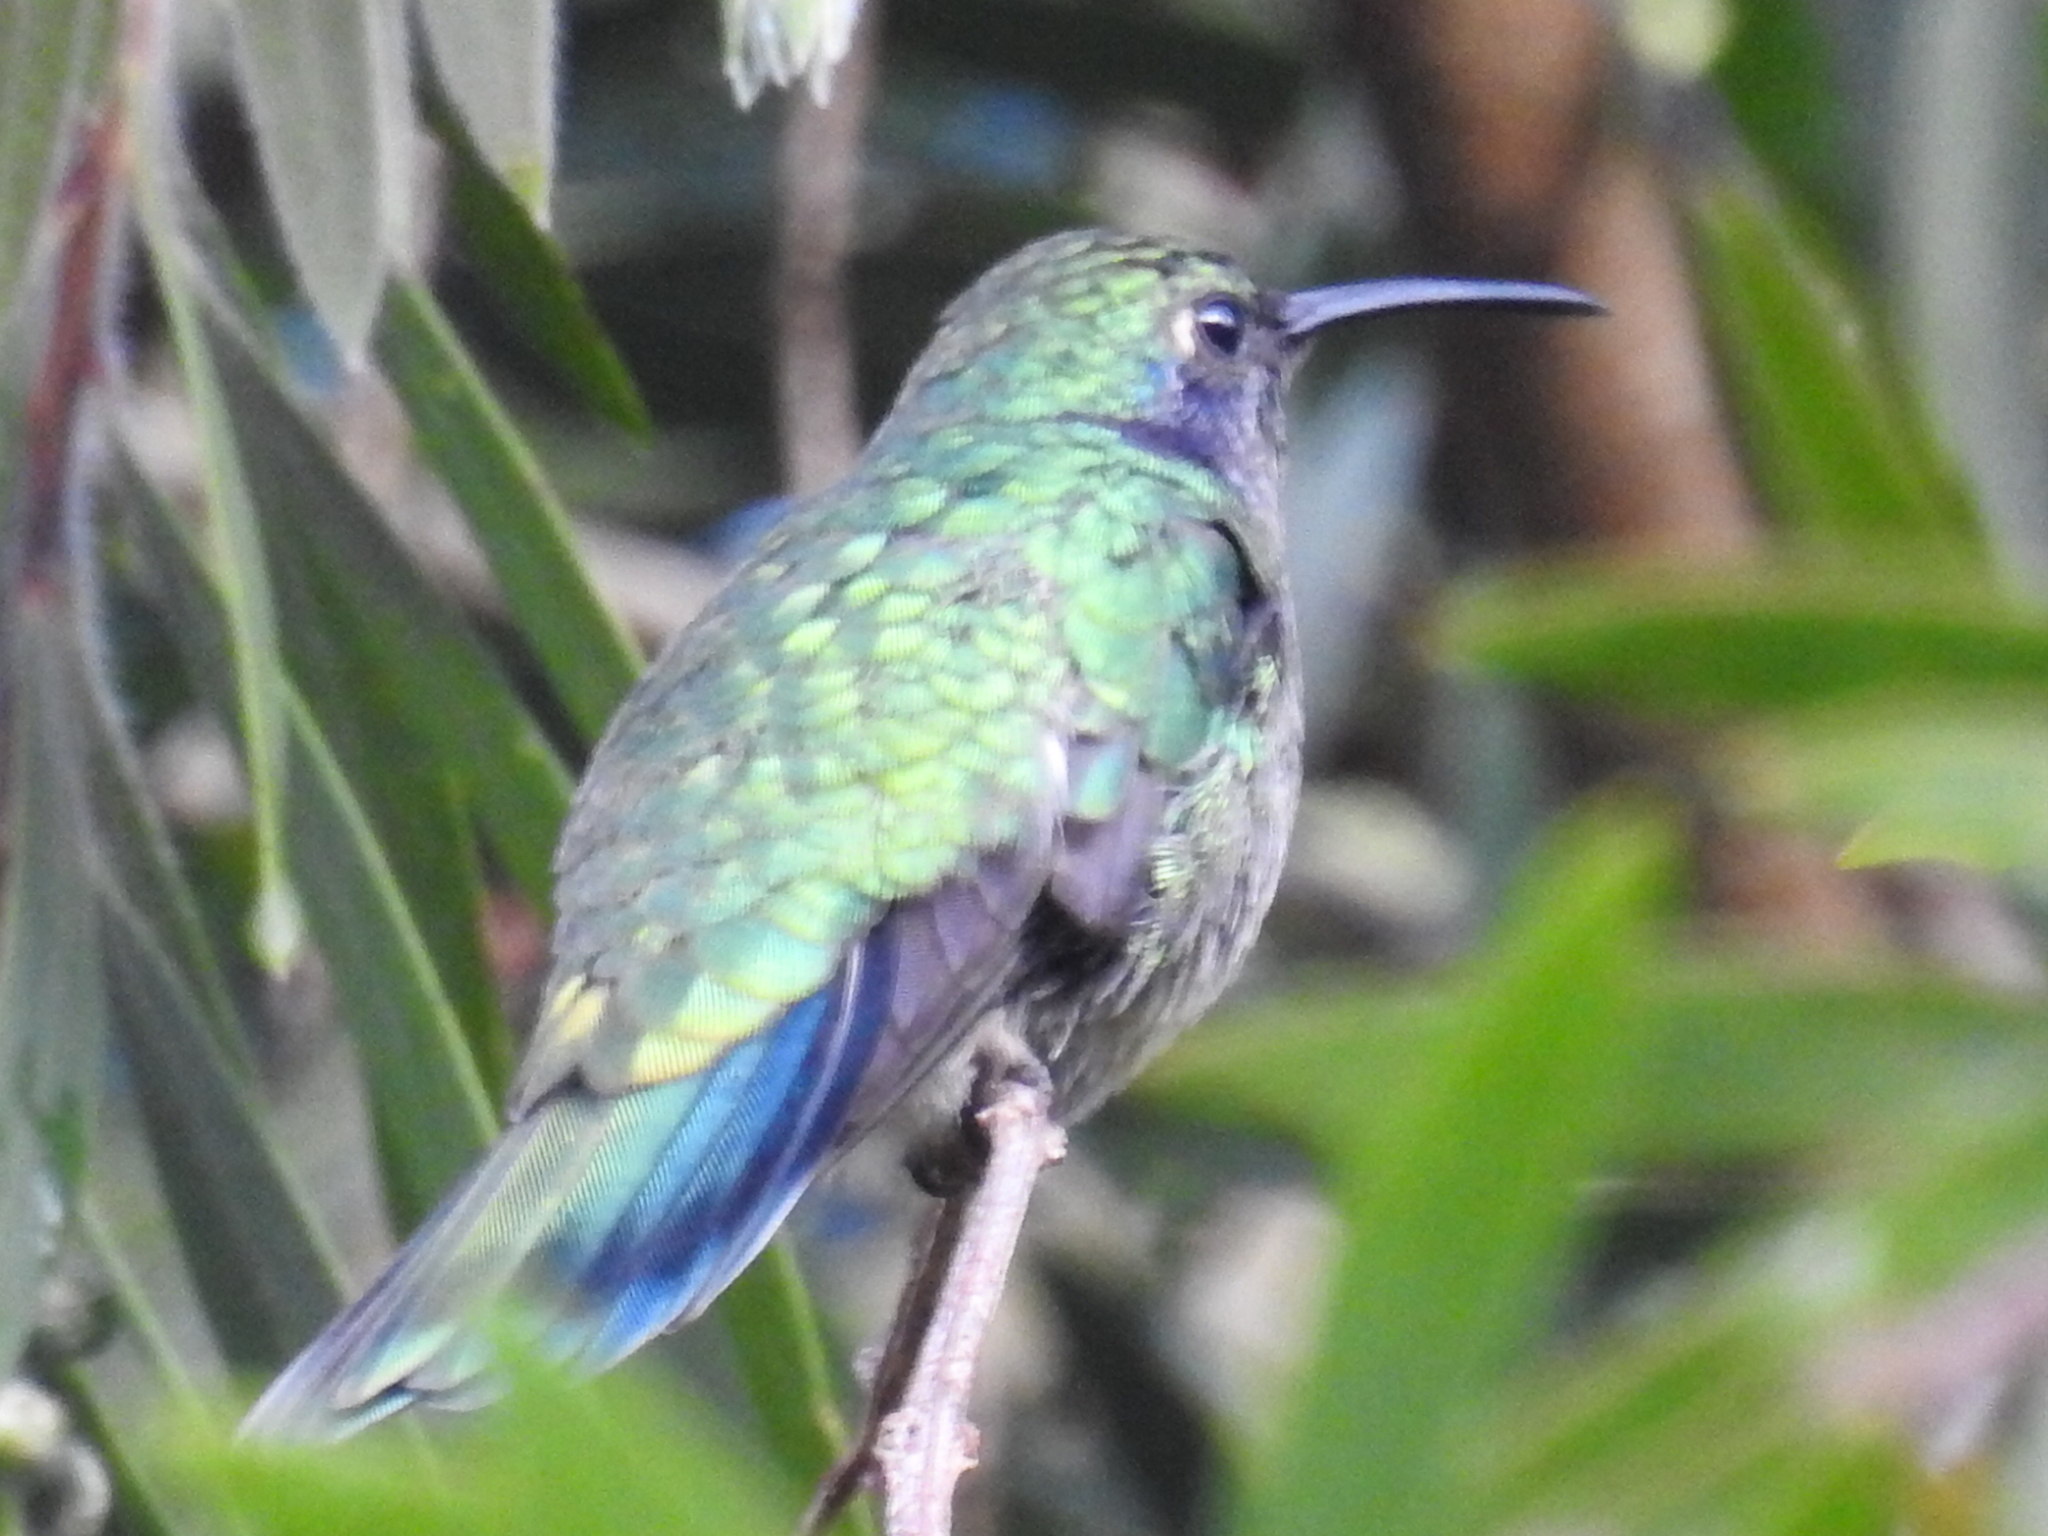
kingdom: Animalia
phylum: Chordata
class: Aves
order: Apodiformes
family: Trochilidae
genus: Colibri
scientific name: Colibri cyanotus
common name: Lesser violetear
